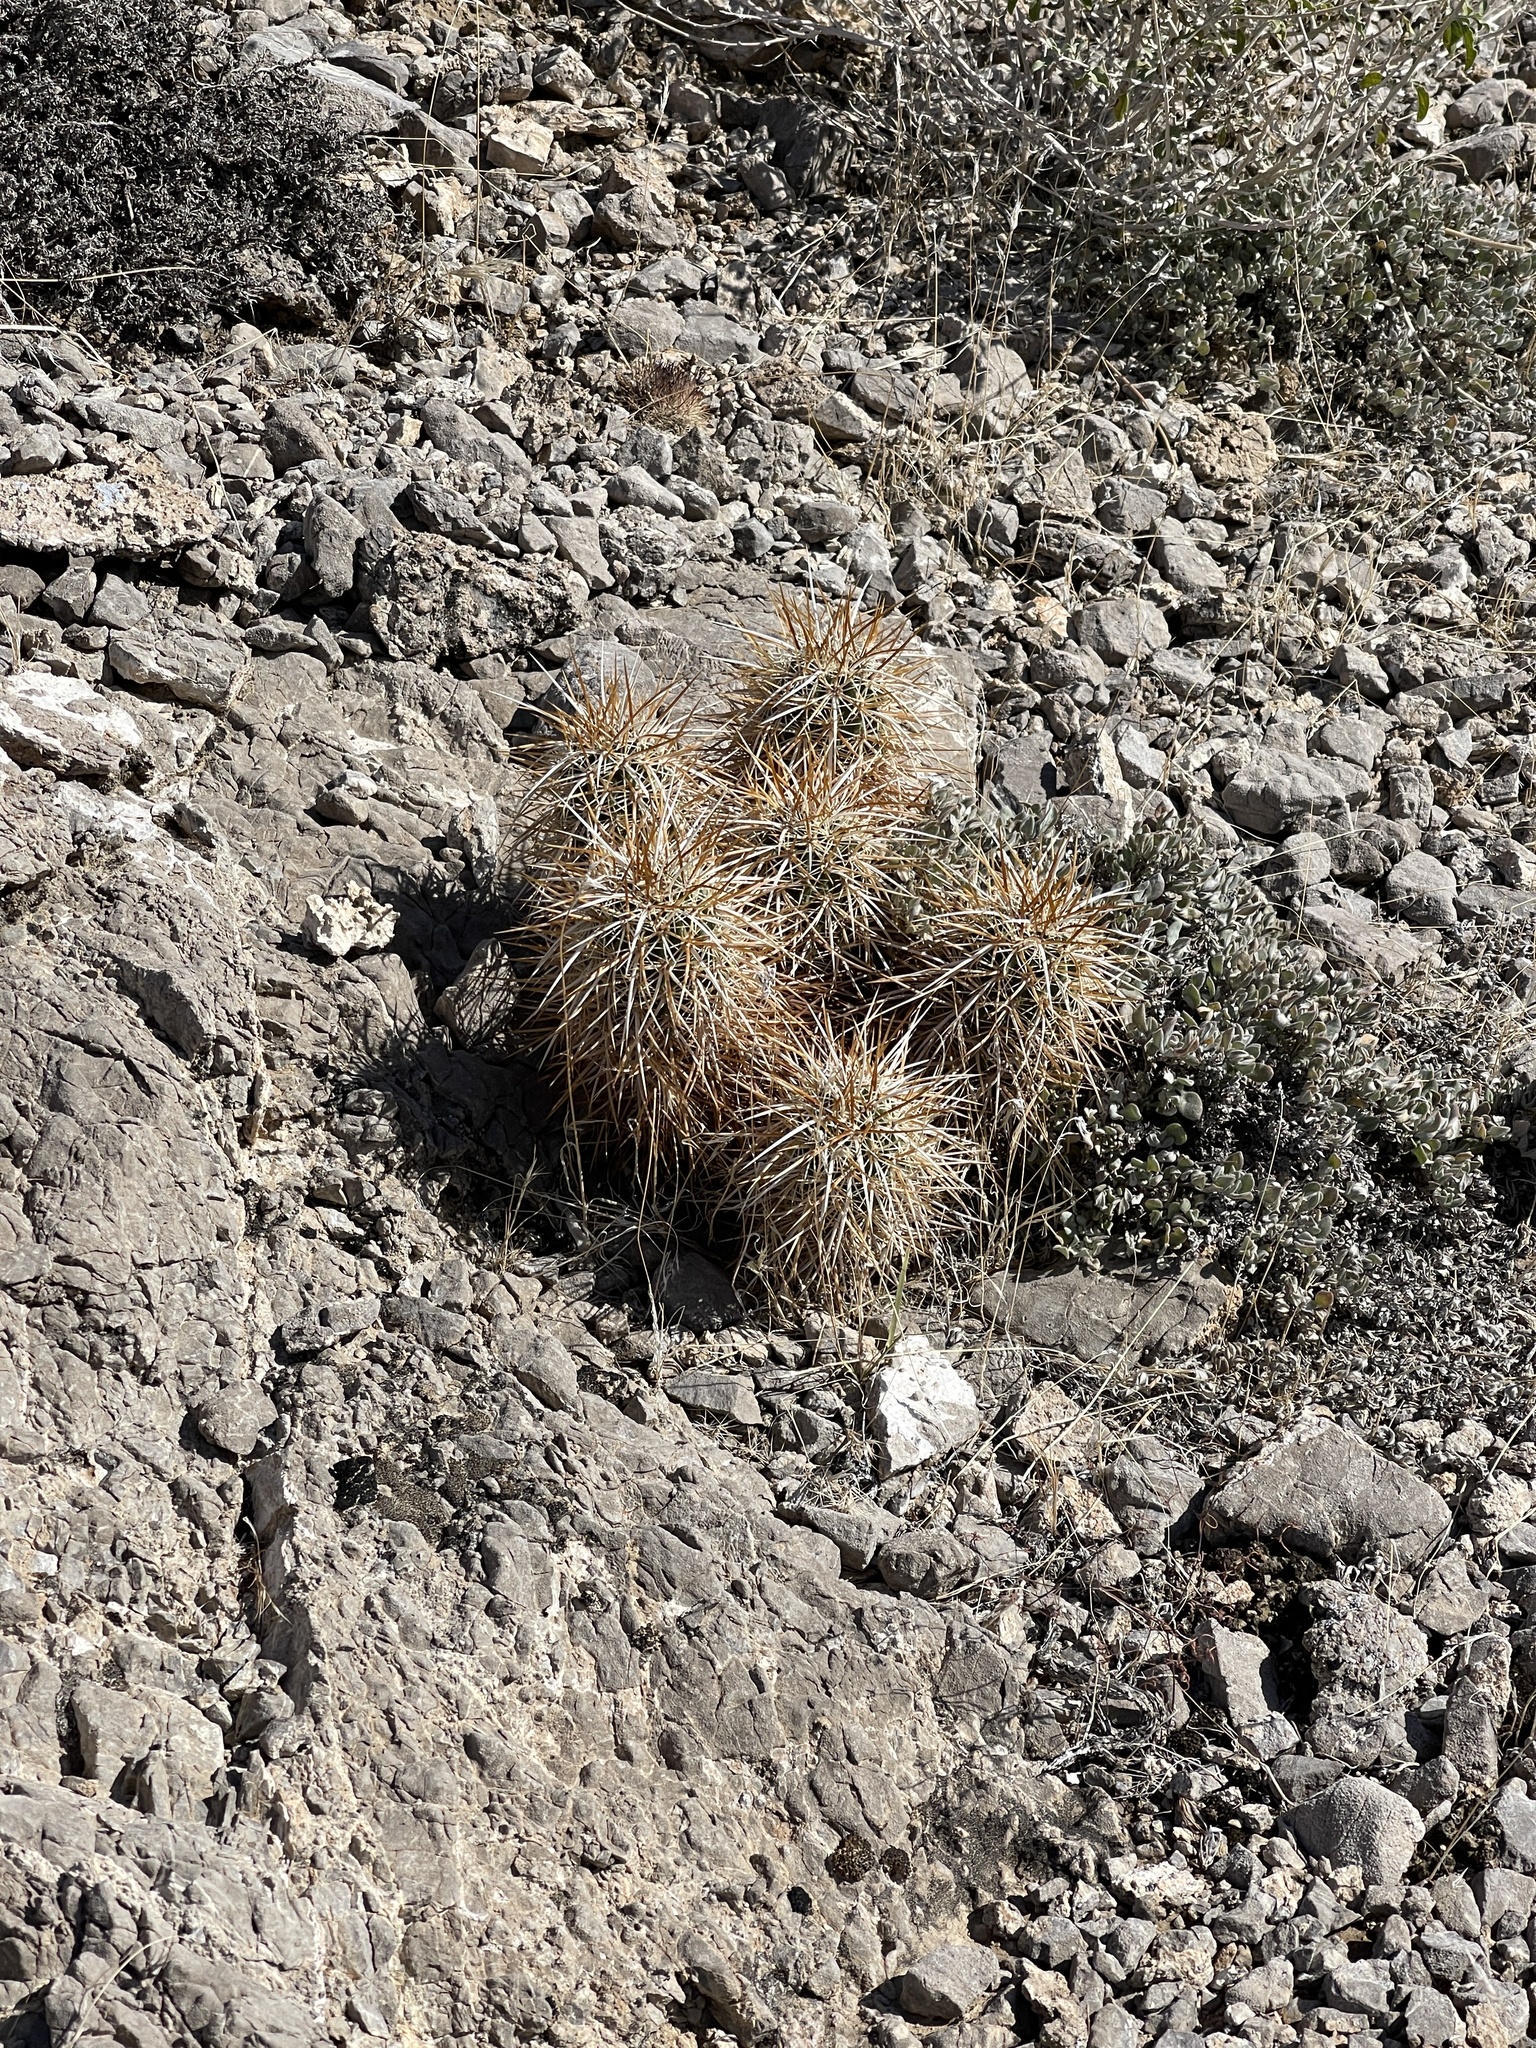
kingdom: Plantae
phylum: Tracheophyta
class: Magnoliopsida
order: Caryophyllales
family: Cactaceae
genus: Echinocereus
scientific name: Echinocereus engelmannii
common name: Engelmann's hedgehog cactus
